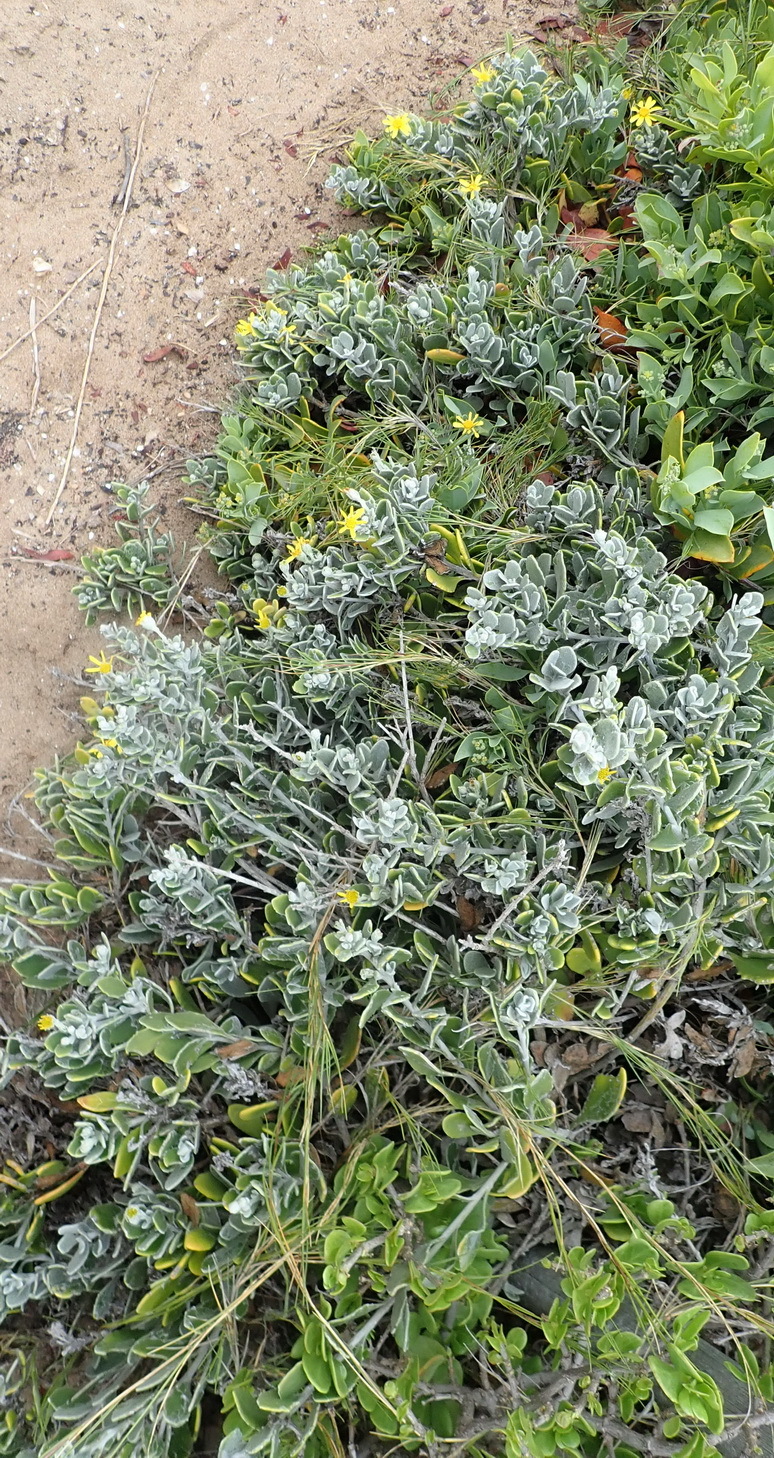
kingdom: Plantae
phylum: Tracheophyta
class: Magnoliopsida
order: Asterales
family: Asteraceae
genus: Osteospermum
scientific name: Osteospermum incanum
